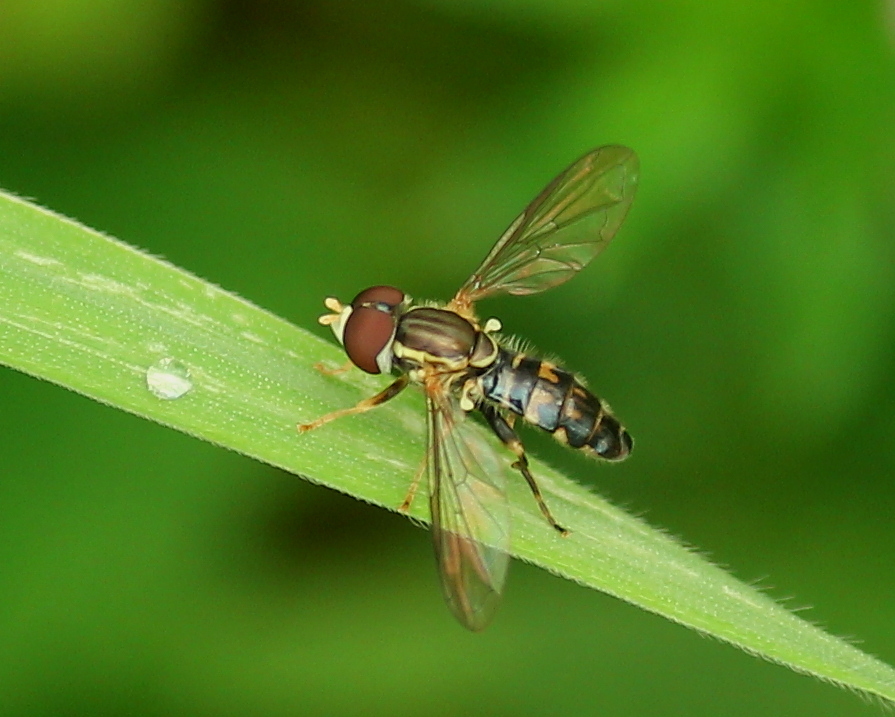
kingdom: Animalia
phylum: Arthropoda
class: Insecta
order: Diptera
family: Syrphidae
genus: Toxomerus
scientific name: Toxomerus geminatus
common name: Eastern calligrapher
